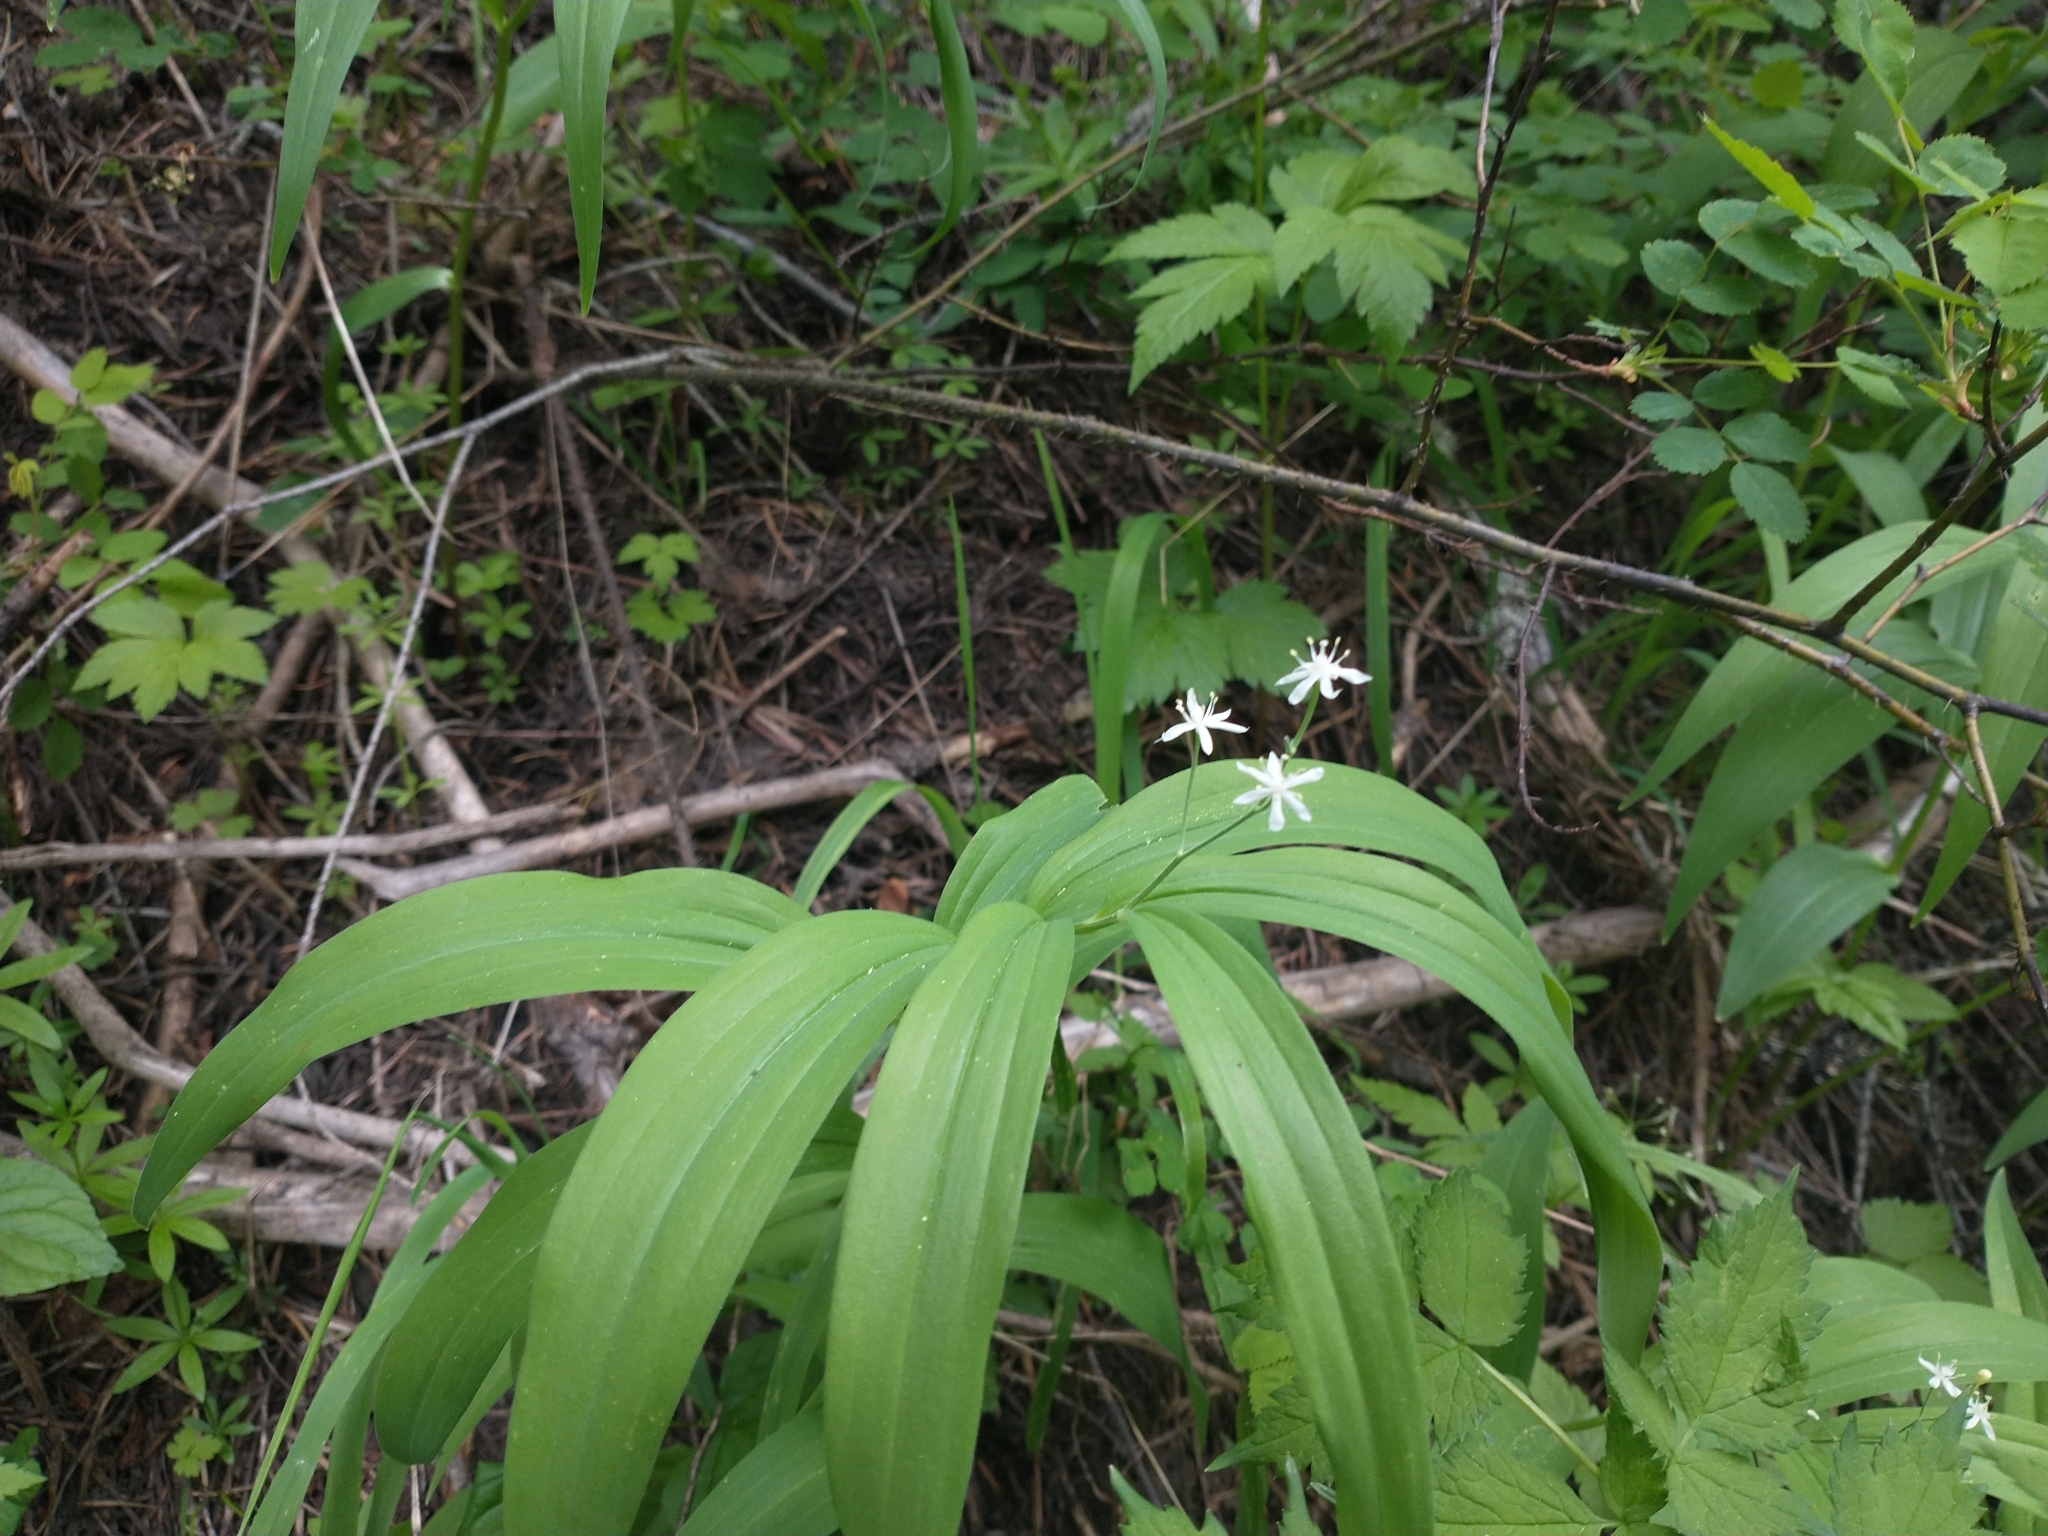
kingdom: Plantae
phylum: Tracheophyta
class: Liliopsida
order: Asparagales
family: Asparagaceae
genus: Maianthemum
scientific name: Maianthemum stellatum
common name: Little false solomon's seal
